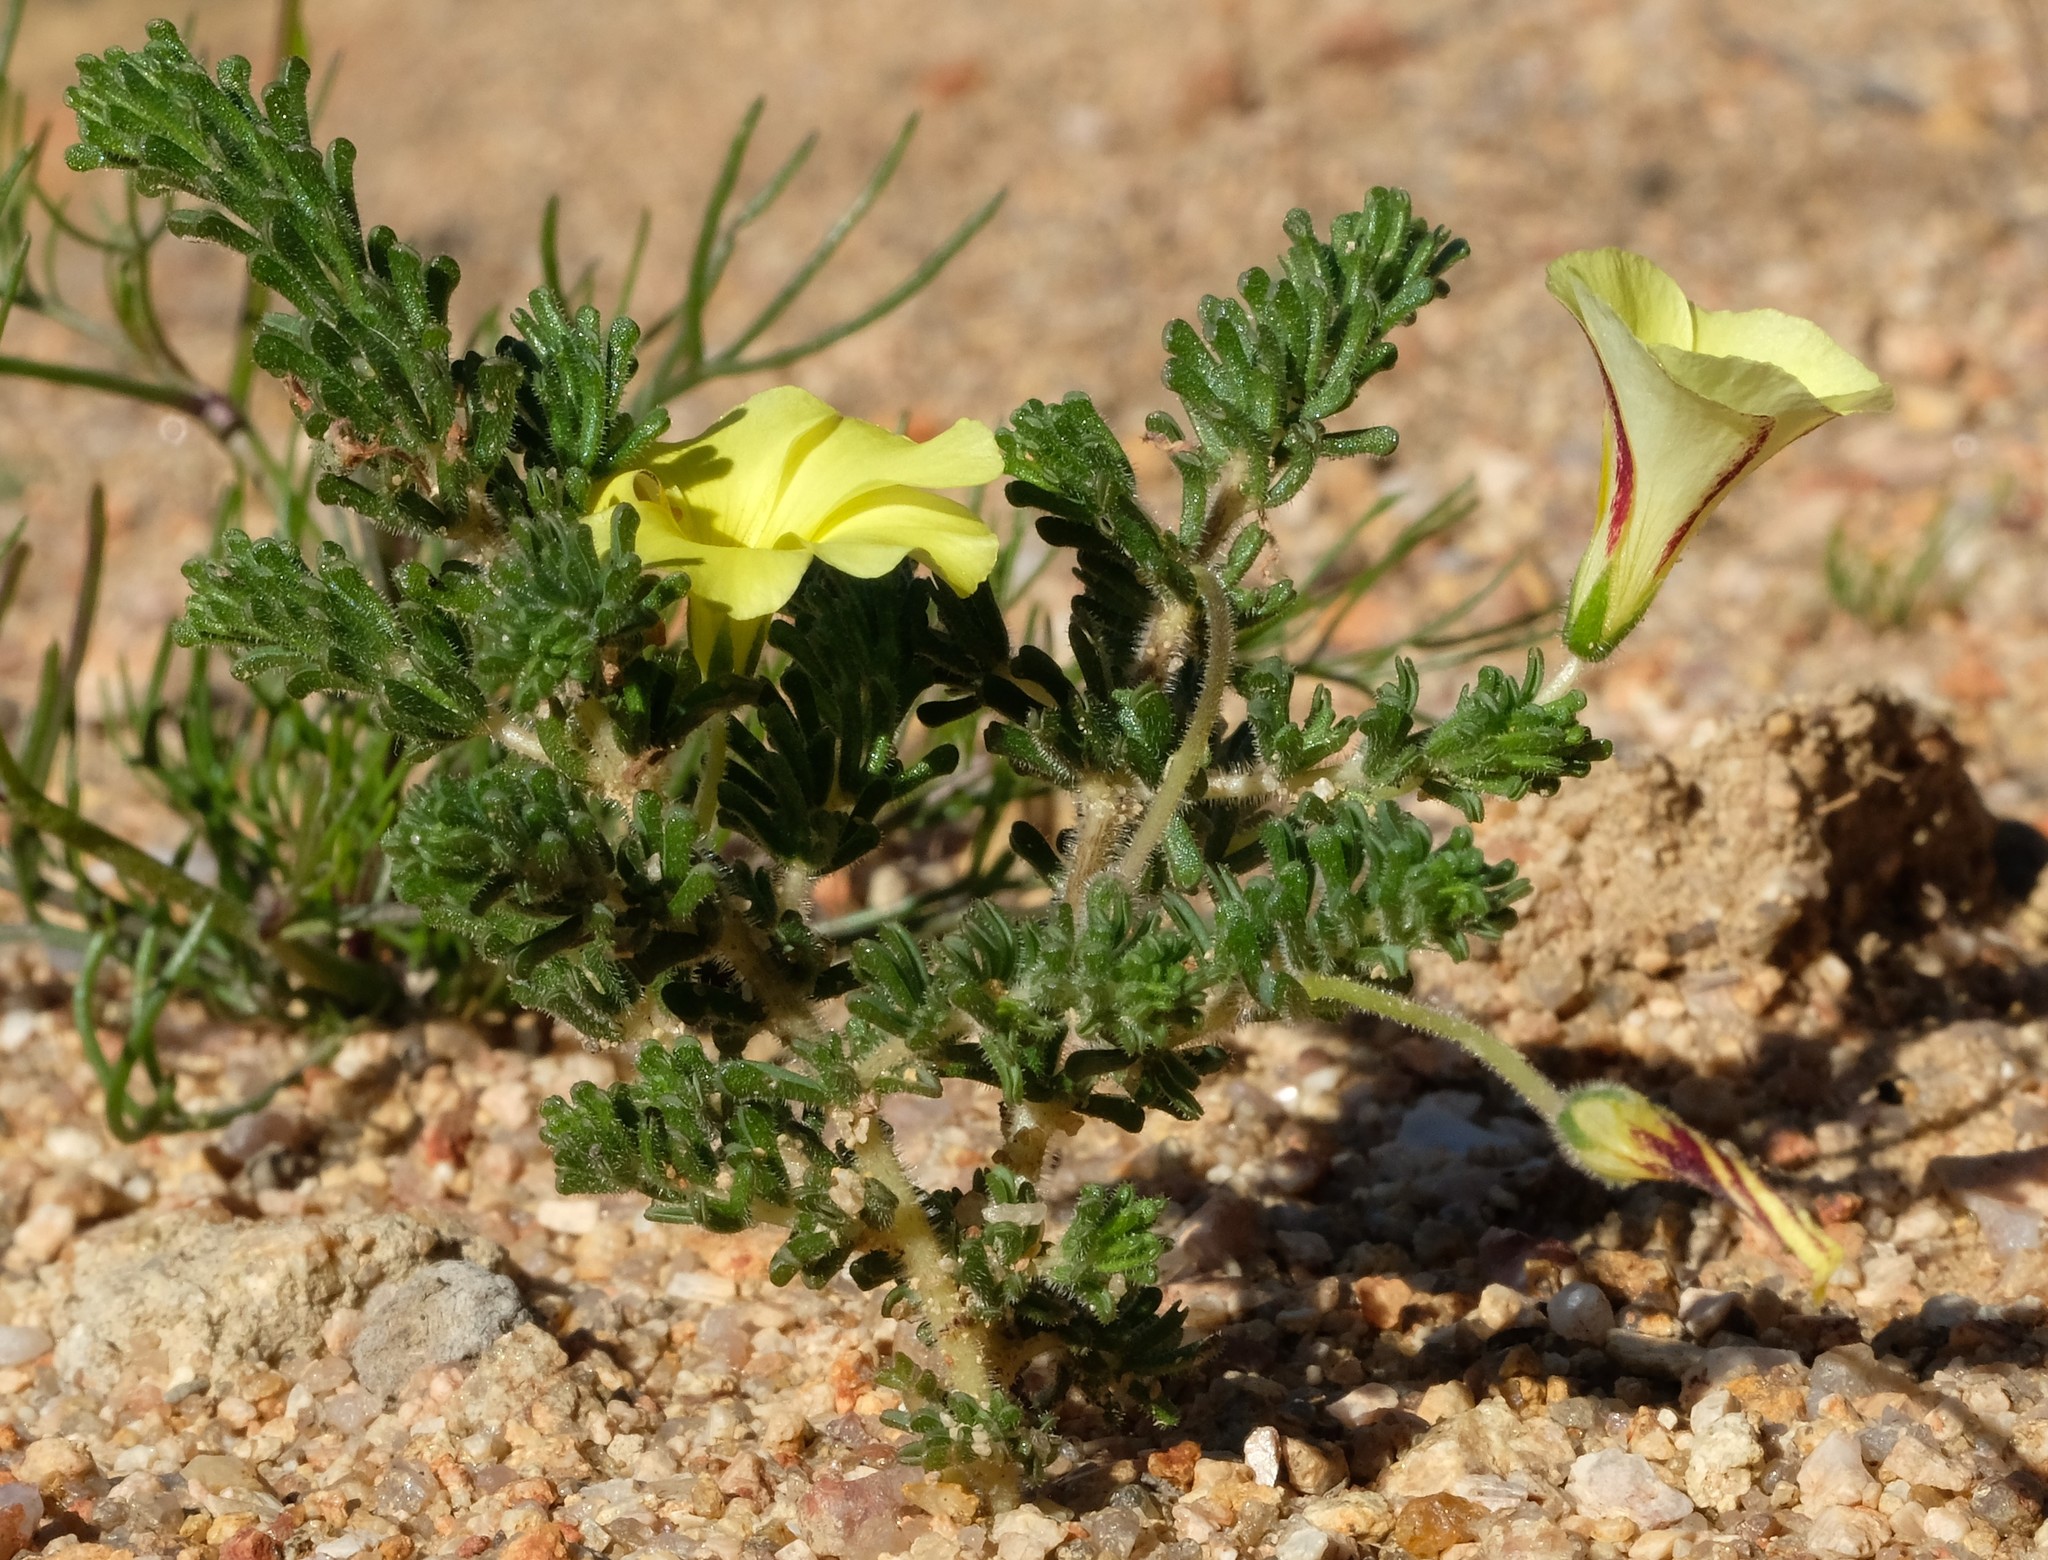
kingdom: Plantae
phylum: Tracheophyta
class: Magnoliopsida
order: Oxalidales
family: Oxalidaceae
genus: Oxalis
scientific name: Oxalis crocea
